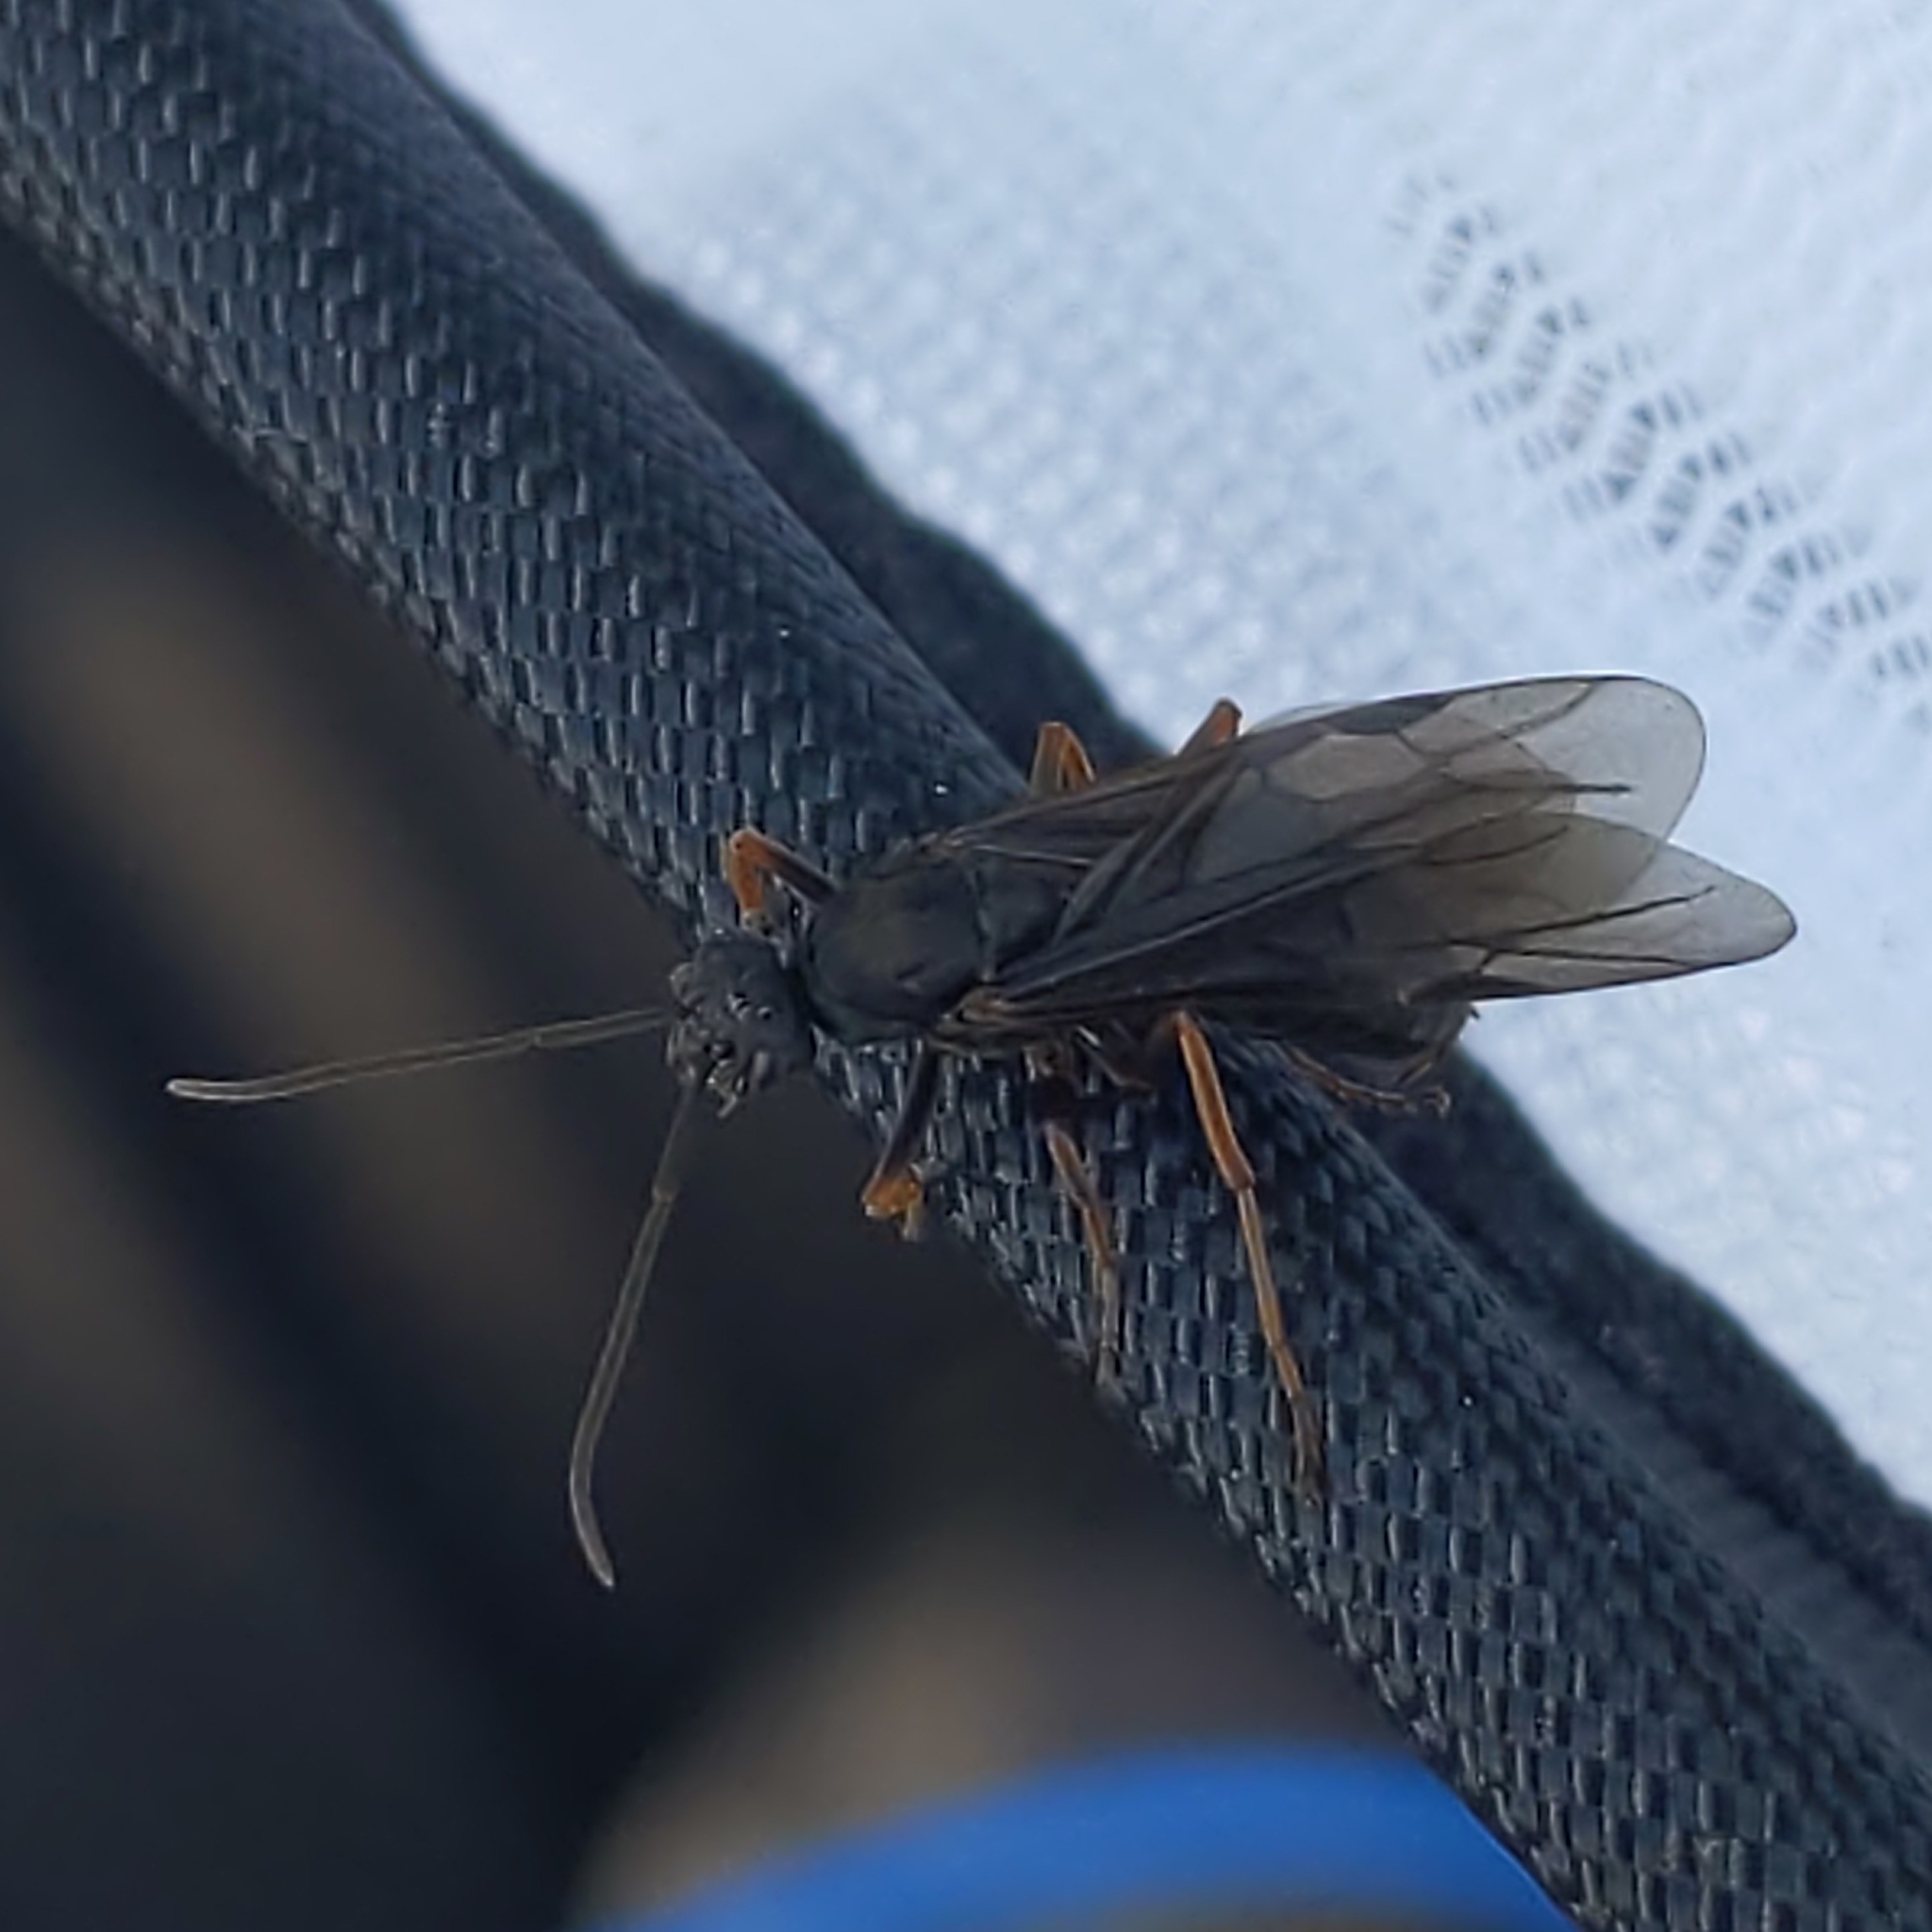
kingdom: Animalia
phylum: Arthropoda
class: Insecta
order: Hymenoptera
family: Formicidae
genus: Formica
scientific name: Formica
